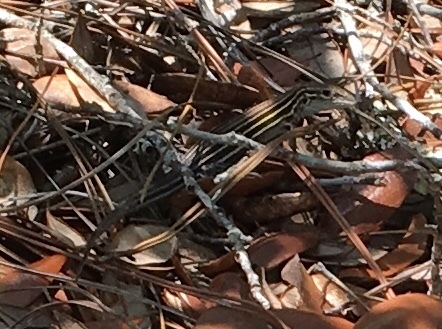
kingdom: Animalia
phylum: Chordata
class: Squamata
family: Teiidae
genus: Aspidoscelis
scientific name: Aspidoscelis sexlineatus
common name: Six-lined racerunner
